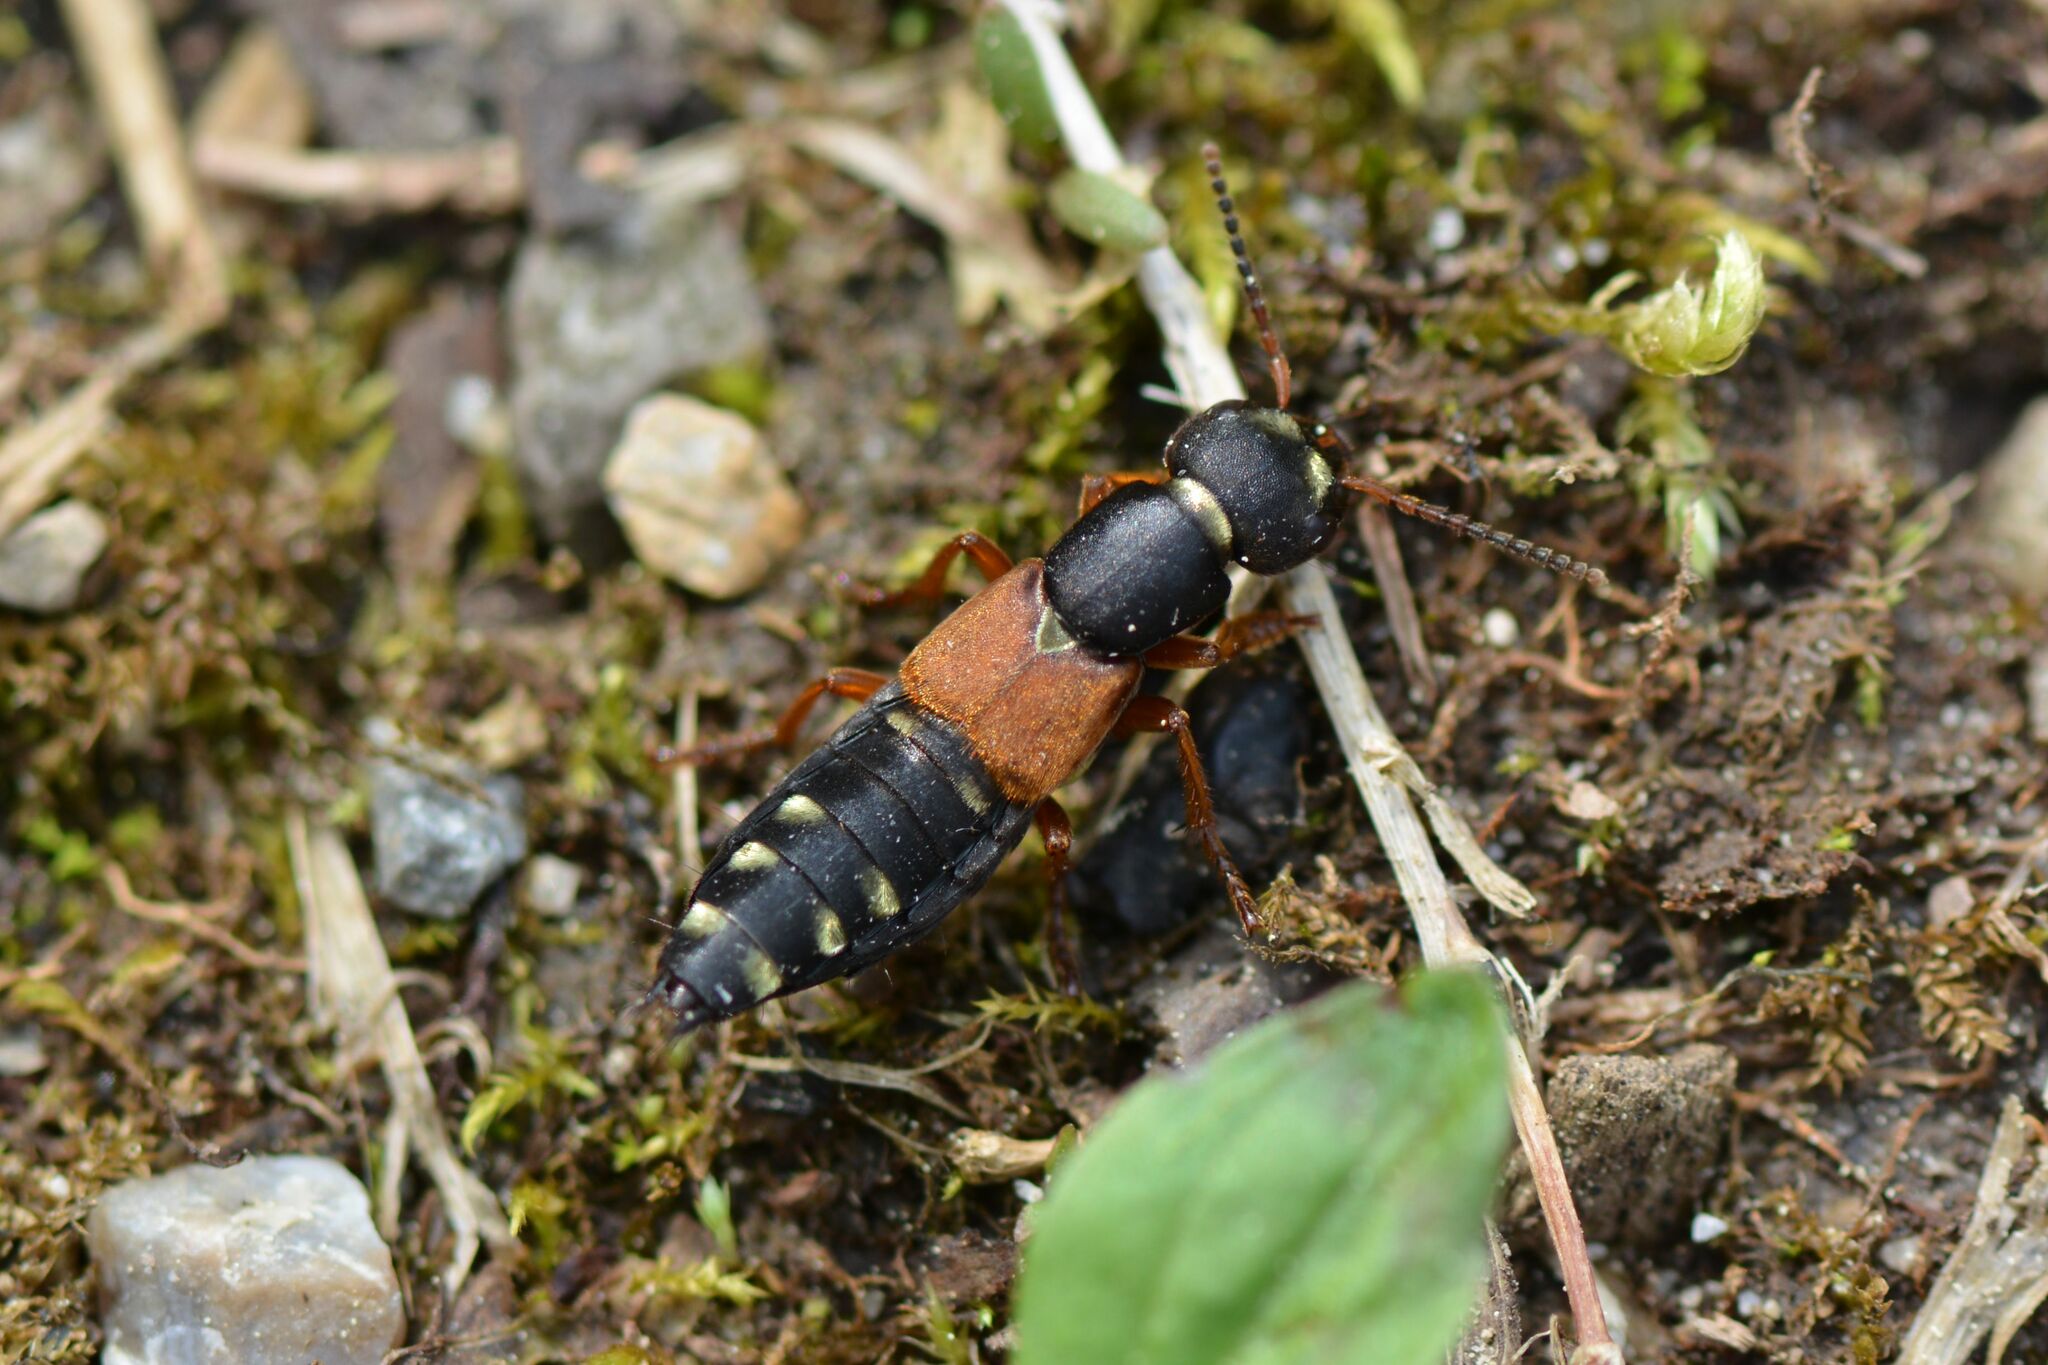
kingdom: Animalia
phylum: Arthropoda
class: Insecta
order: Coleoptera
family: Staphylinidae
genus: Staphylinus
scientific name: Staphylinus erythropterus
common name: Staph beetle
